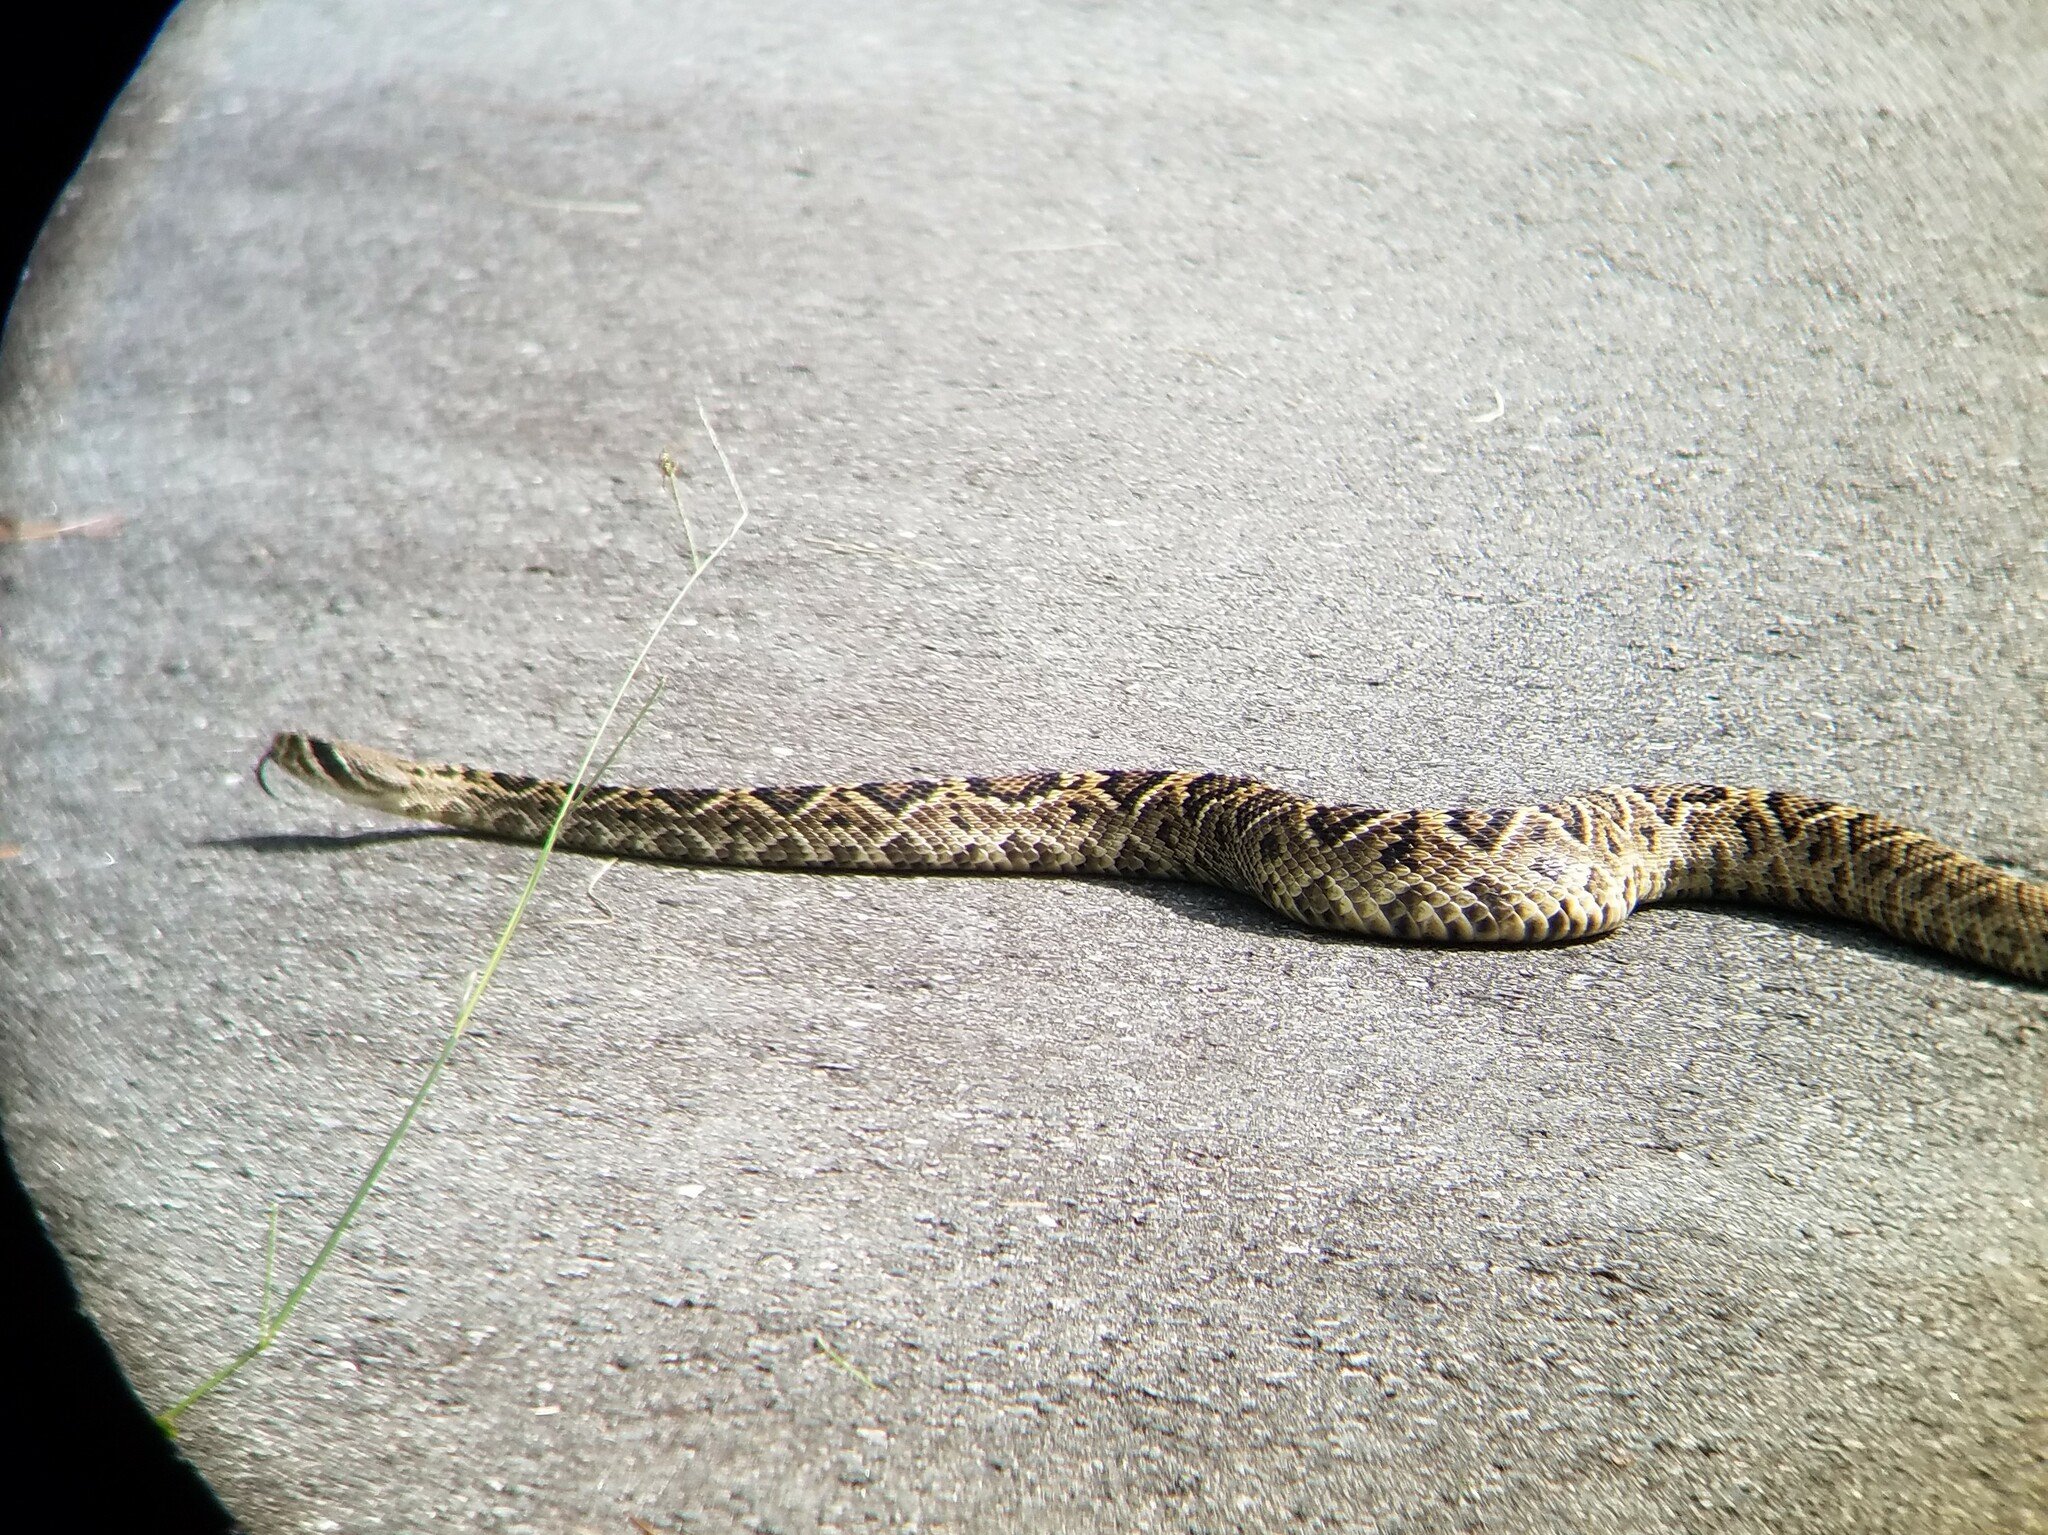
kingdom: Animalia
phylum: Chordata
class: Squamata
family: Viperidae
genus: Crotalus
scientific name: Crotalus adamanteus
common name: Eastern diamondback rattlesnake
